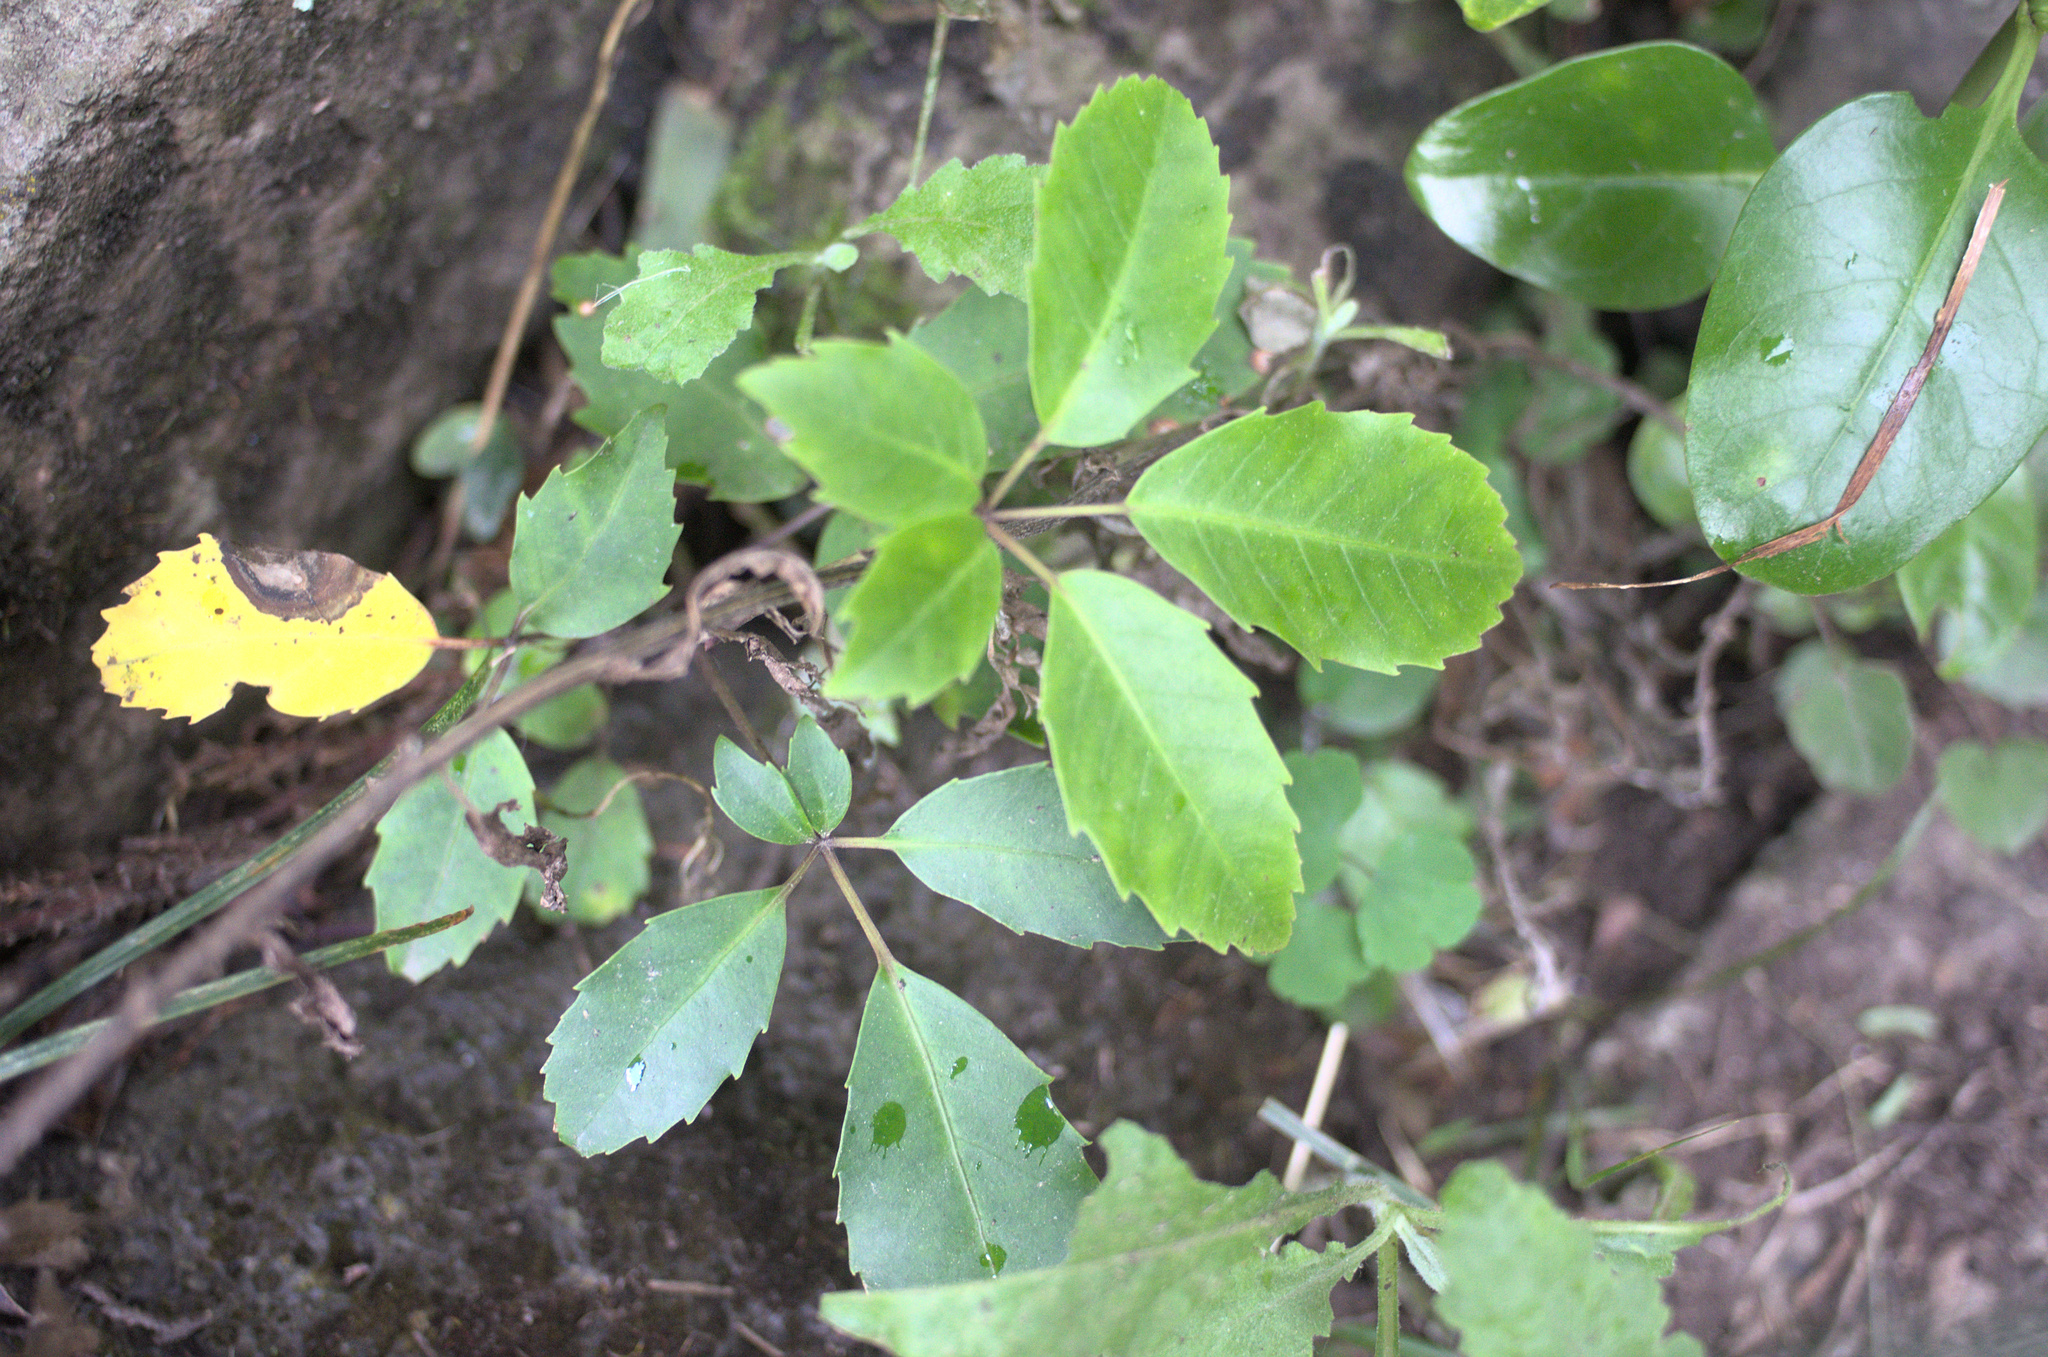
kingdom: Plantae
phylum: Tracheophyta
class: Magnoliopsida
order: Apiales
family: Araliaceae
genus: Neopanax
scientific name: Neopanax arboreus
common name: Five-fingers
